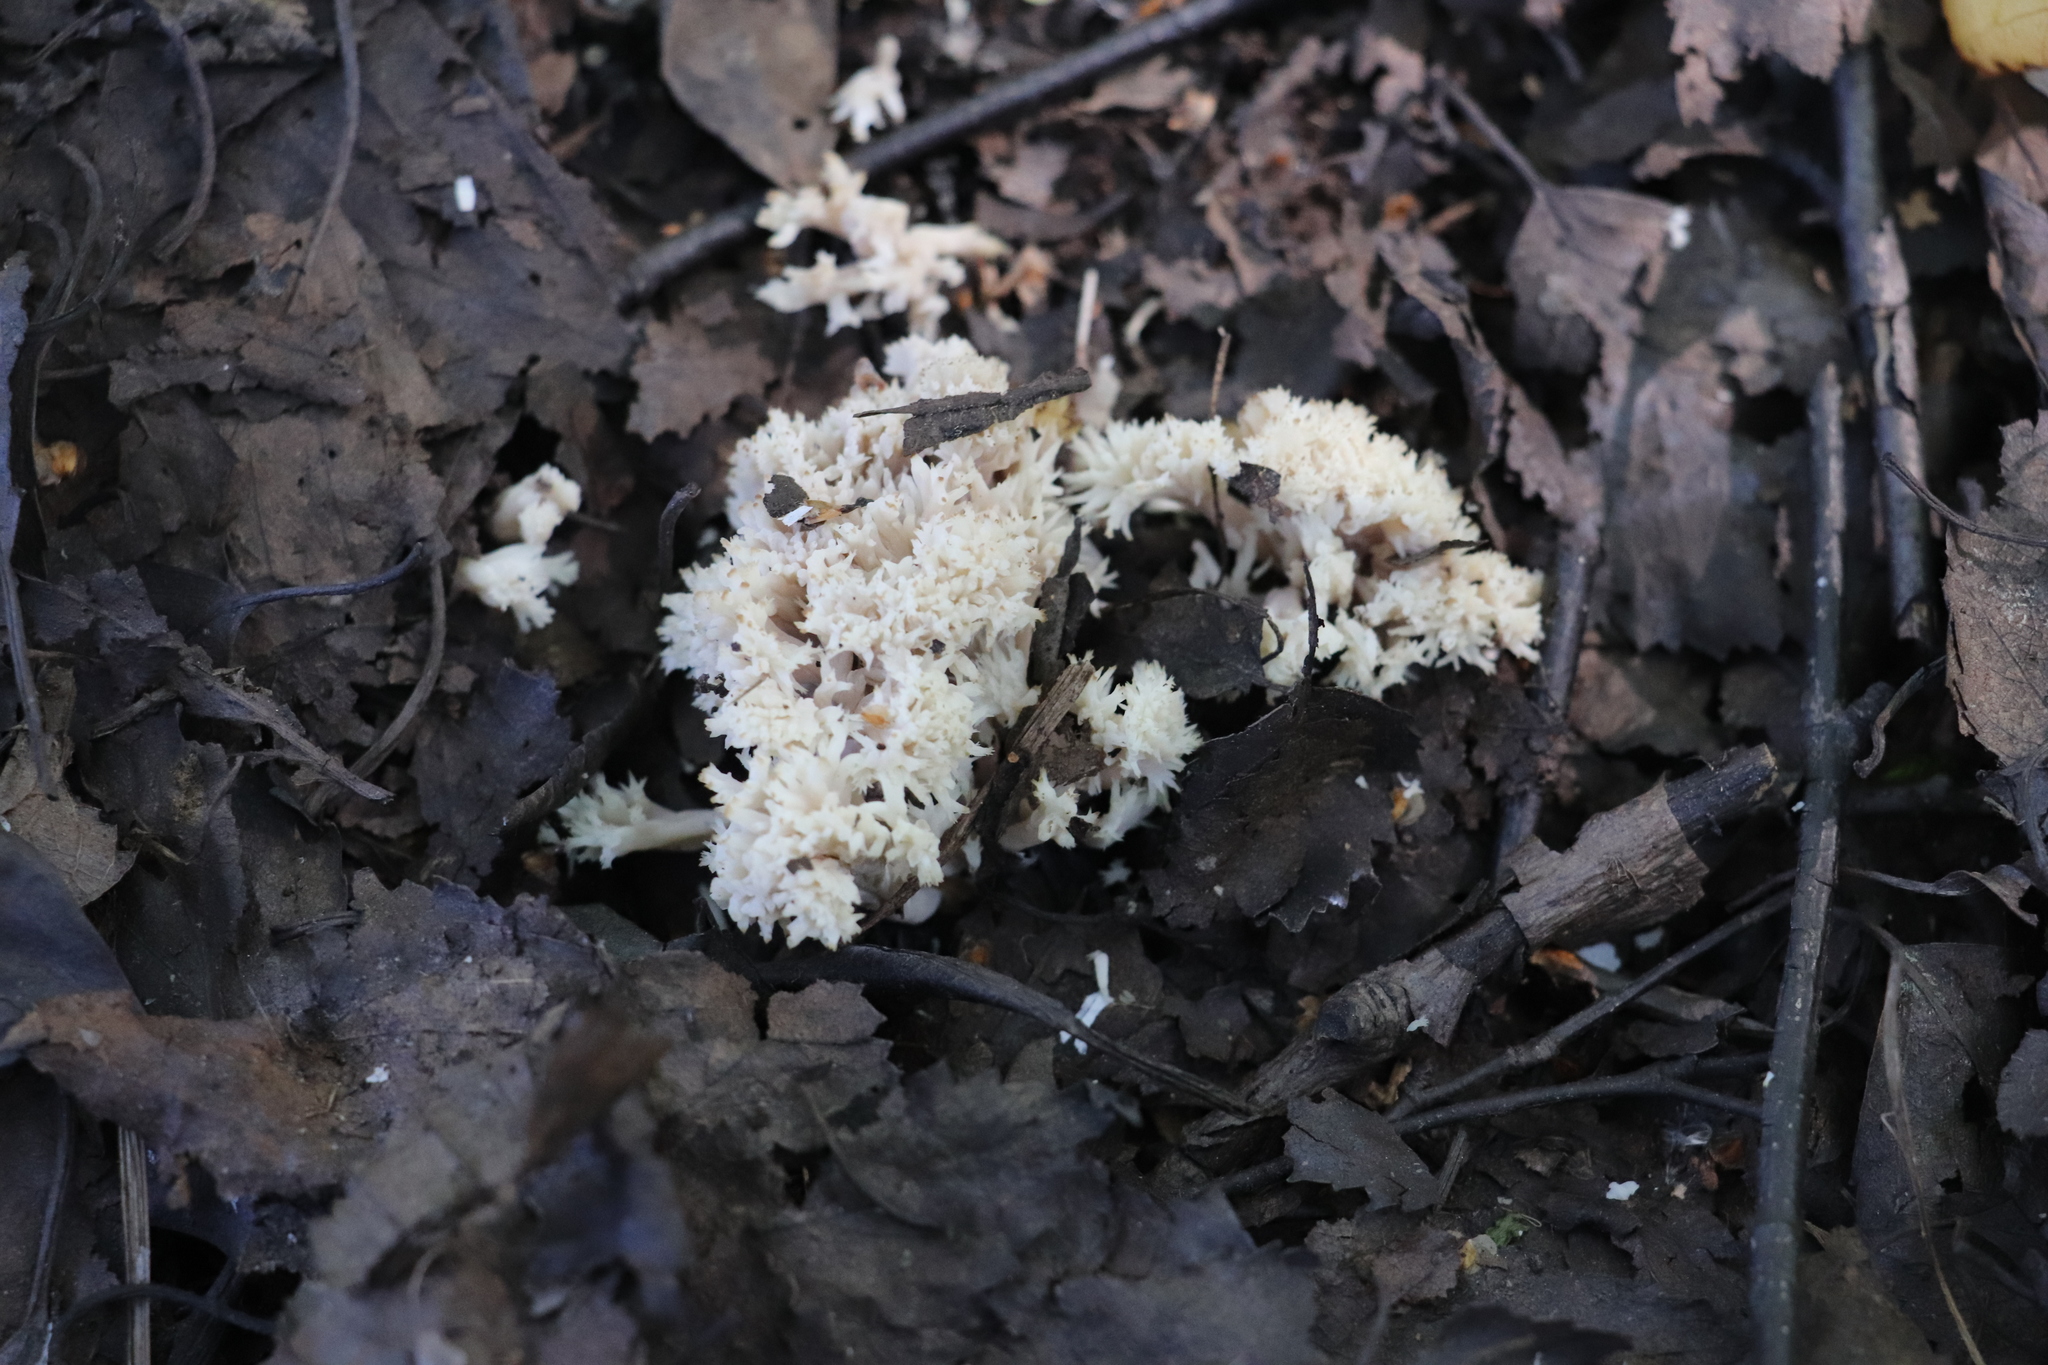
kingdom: Fungi
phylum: Basidiomycota
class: Agaricomycetes
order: Cantharellales
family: Hydnaceae
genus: Clavulina
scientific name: Clavulina coralloides
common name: Crested coral
